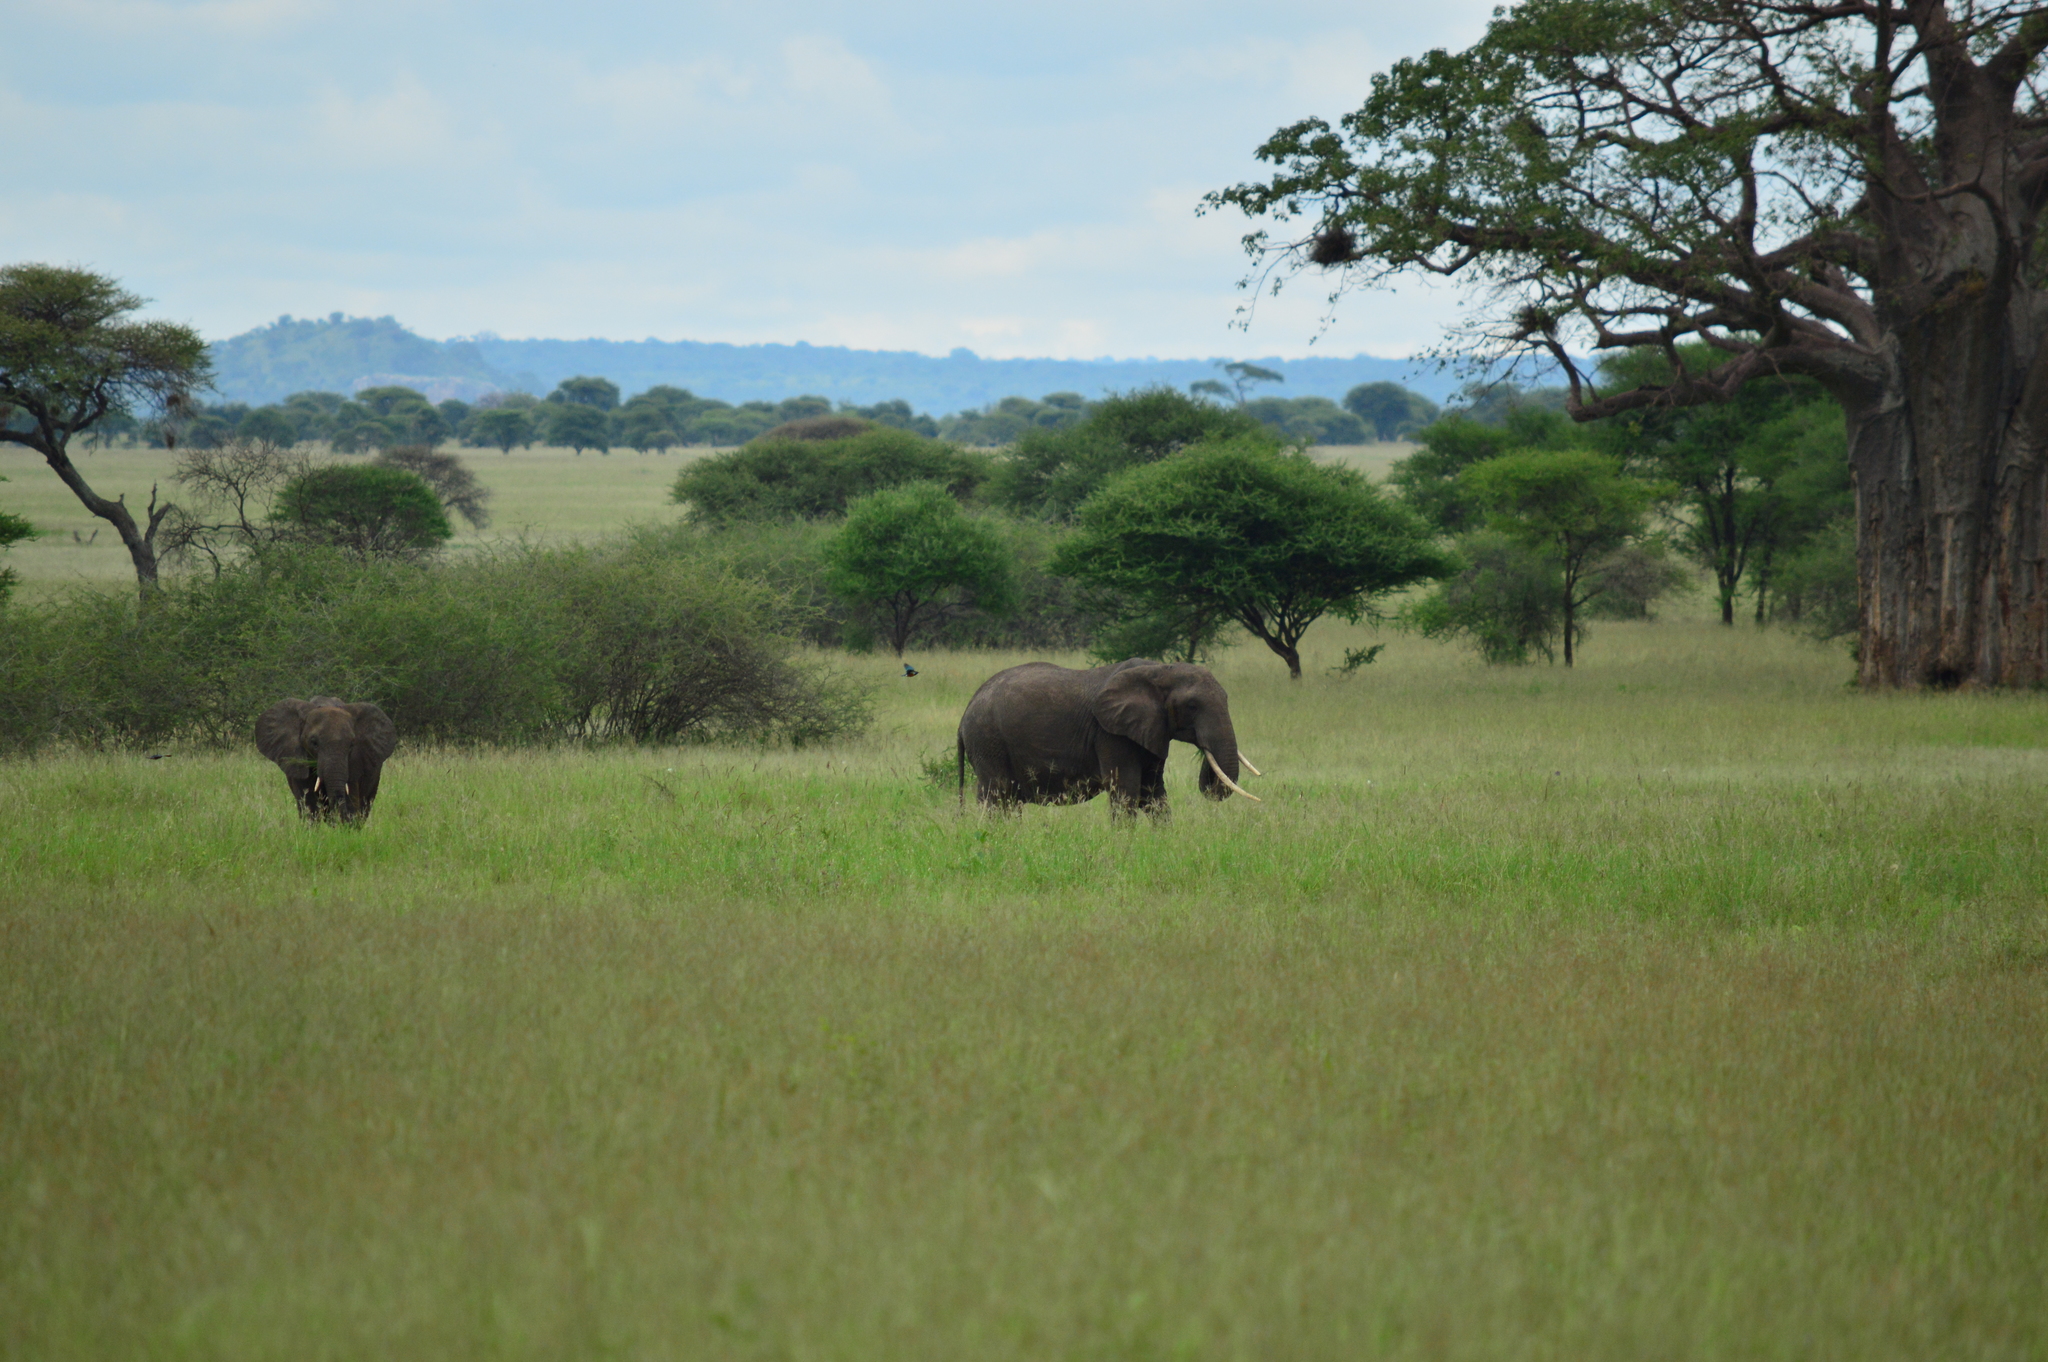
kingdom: Animalia
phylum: Chordata
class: Mammalia
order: Proboscidea
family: Elephantidae
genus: Loxodonta
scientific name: Loxodonta africana
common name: African elephant
